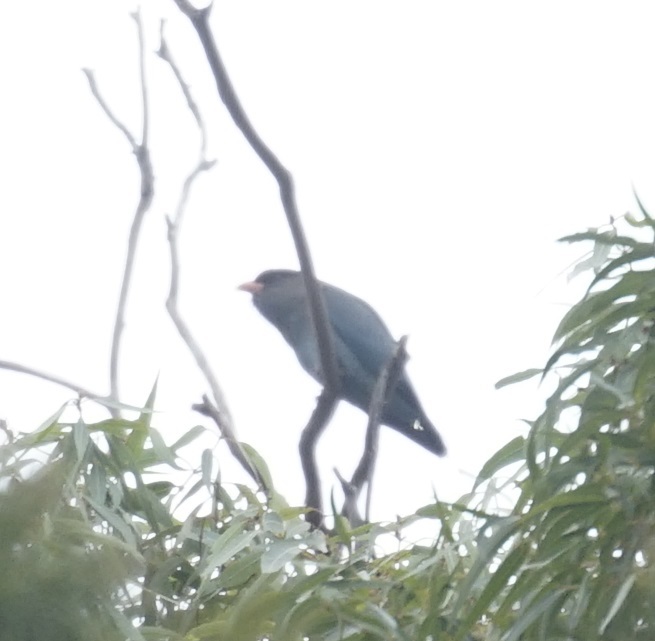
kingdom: Animalia
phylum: Chordata
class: Aves
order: Coraciiformes
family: Coraciidae
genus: Eurystomus
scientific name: Eurystomus orientalis
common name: Oriental dollarbird
